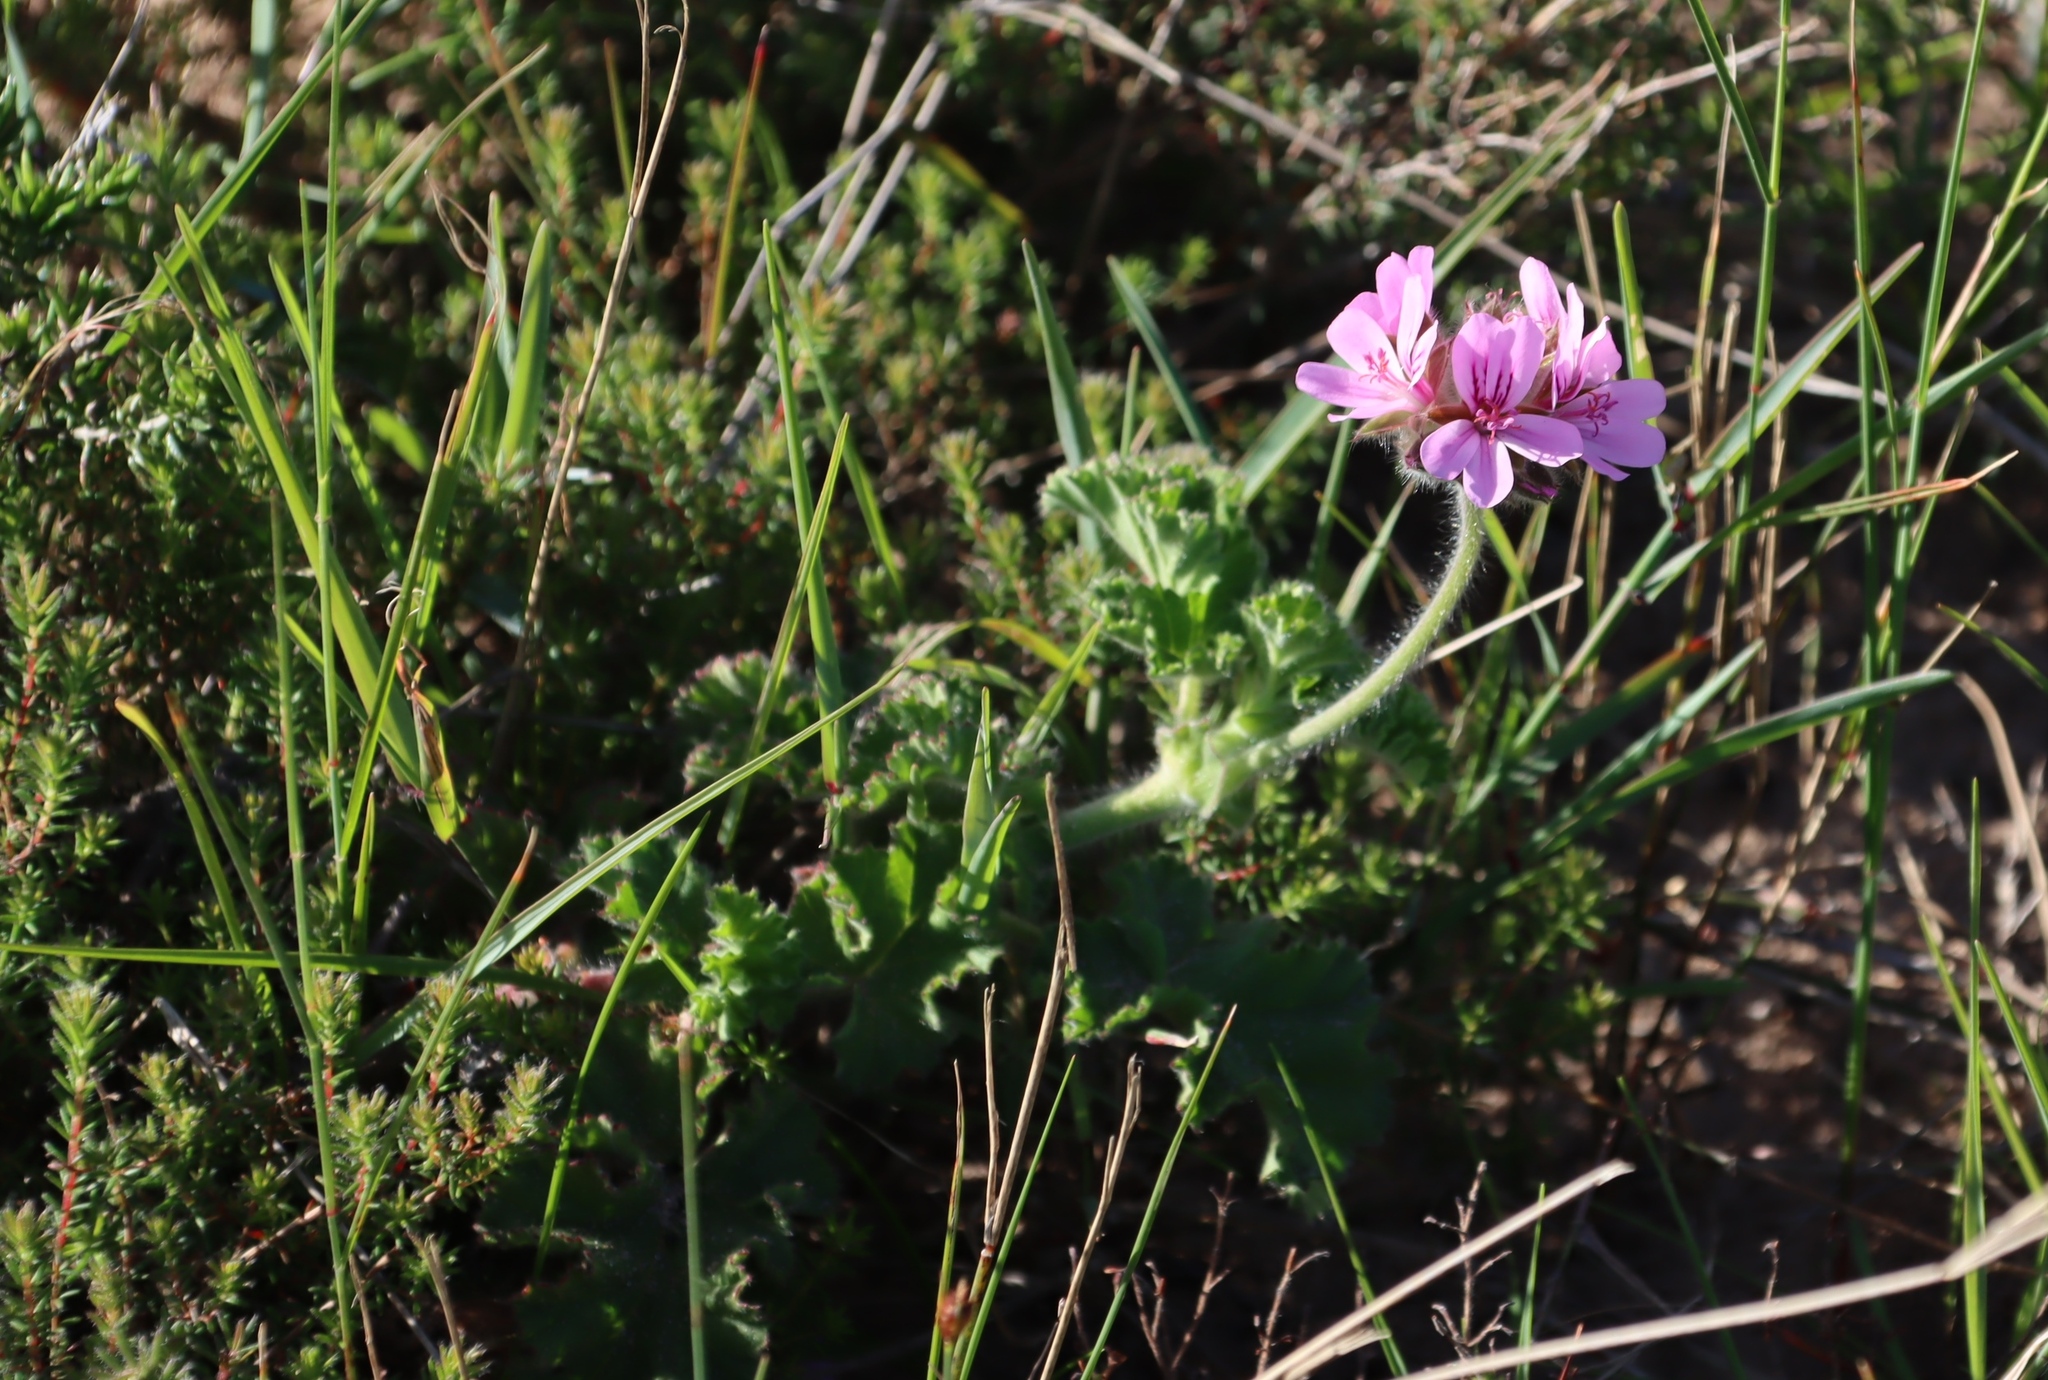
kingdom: Plantae
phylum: Tracheophyta
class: Magnoliopsida
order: Geraniales
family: Geraniaceae
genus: Pelargonium
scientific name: Pelargonium capitatum
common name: Rose scented geranium
